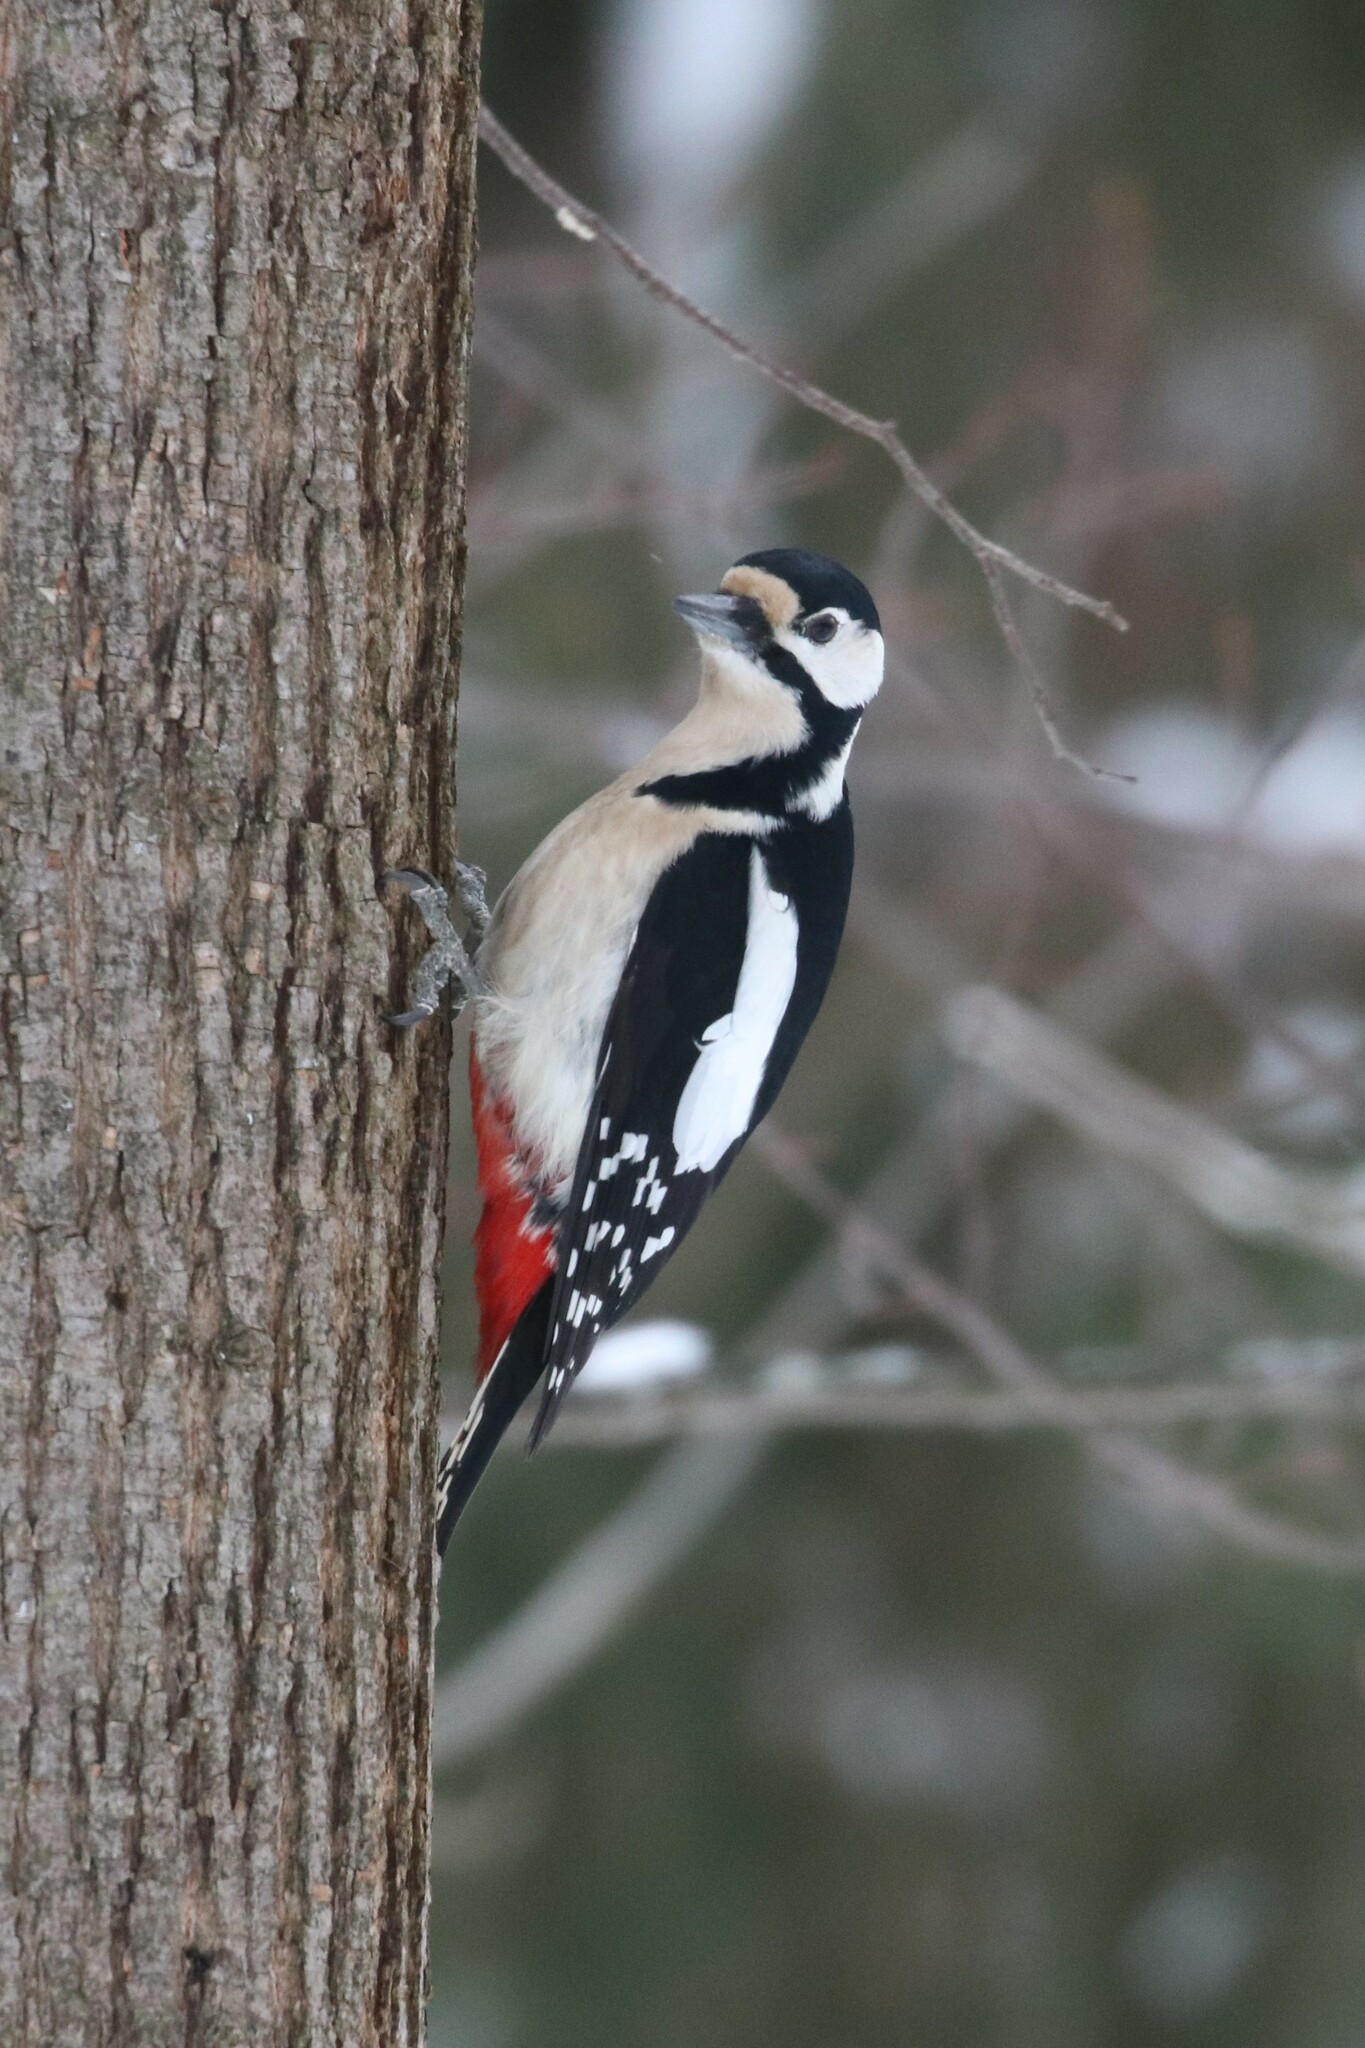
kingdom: Animalia
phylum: Chordata
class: Aves
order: Piciformes
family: Picidae
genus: Dendrocopos
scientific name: Dendrocopos major
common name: Great spotted woodpecker
